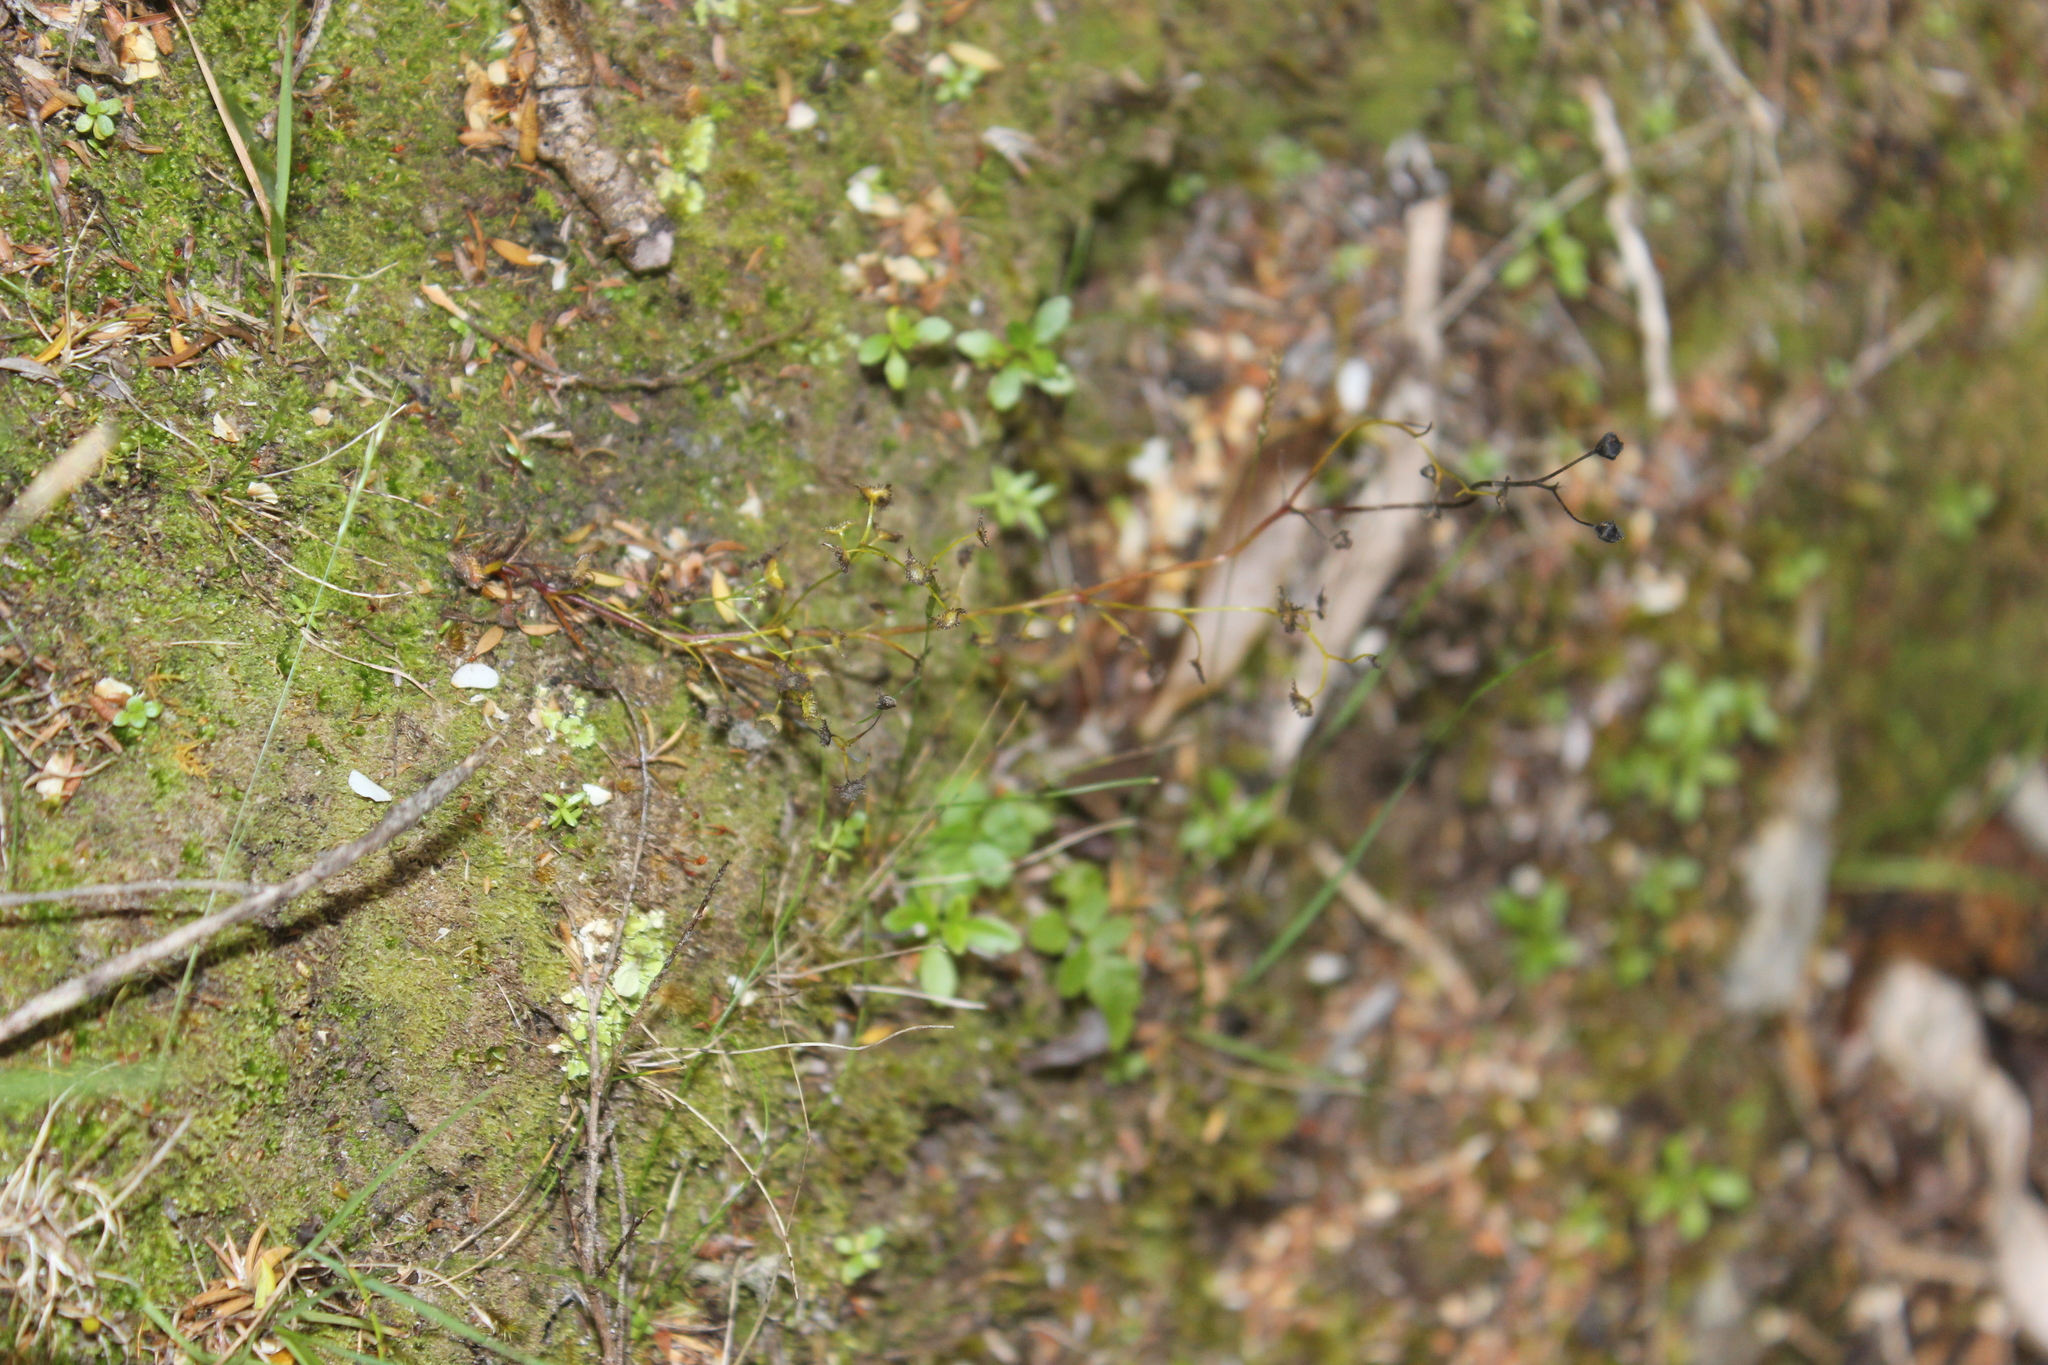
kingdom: Plantae
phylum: Tracheophyta
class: Magnoliopsida
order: Caryophyllales
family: Droseraceae
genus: Drosera
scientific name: Drosera peltata
